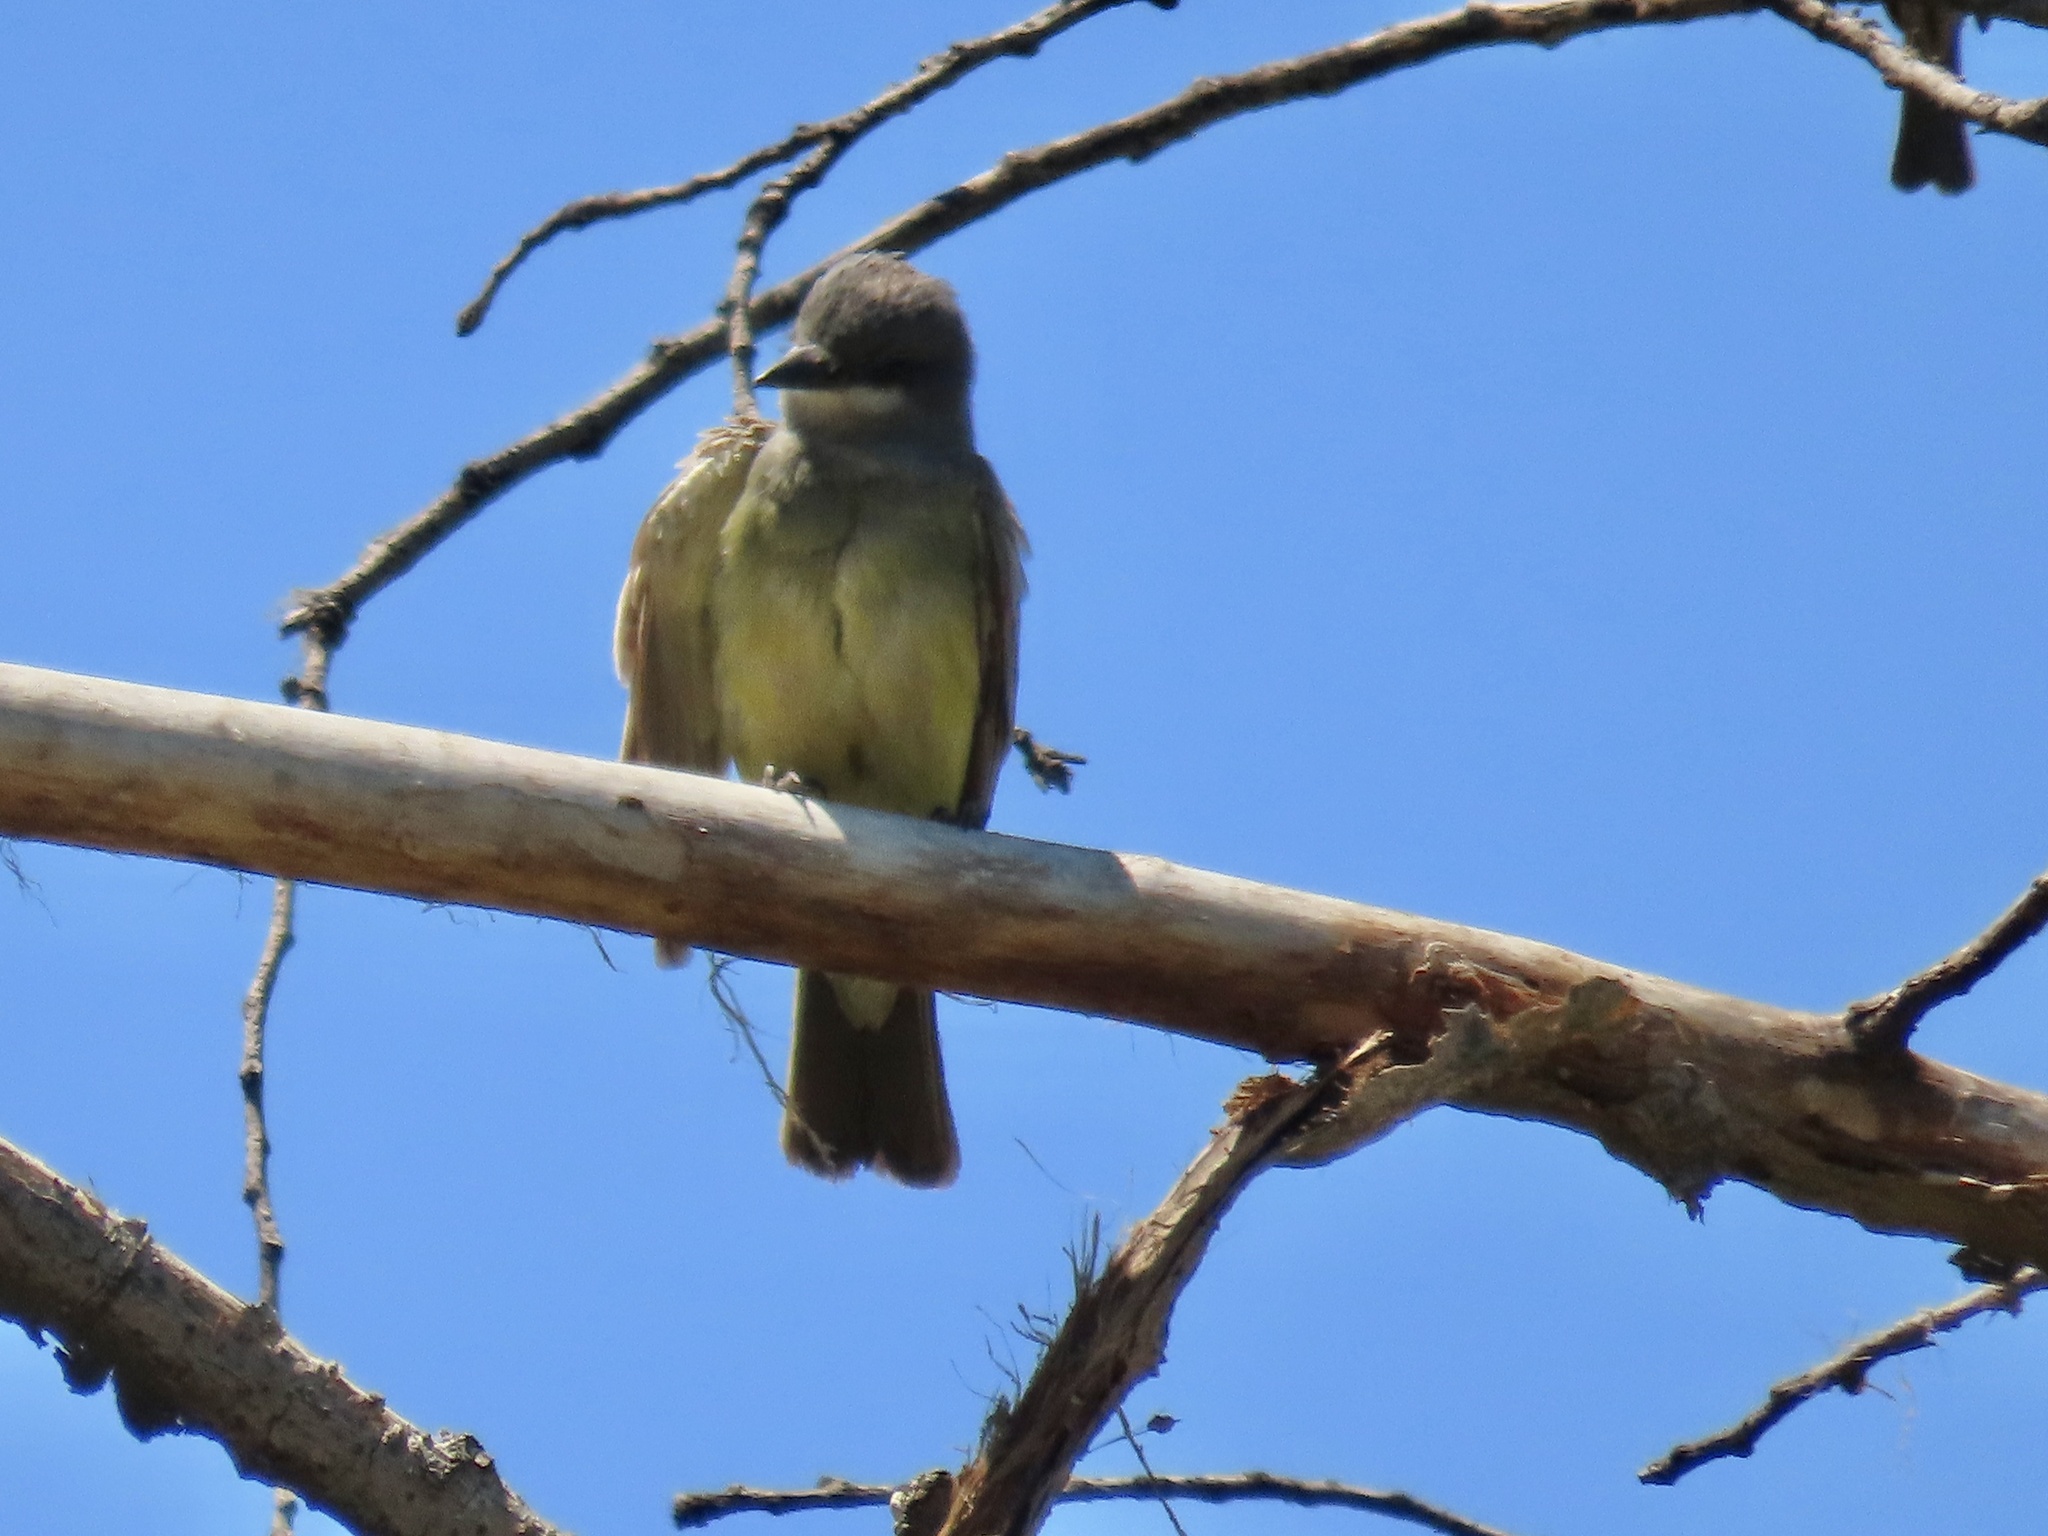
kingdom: Animalia
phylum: Chordata
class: Aves
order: Passeriformes
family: Tyrannidae
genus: Tyrannus
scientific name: Tyrannus vociferans
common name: Cassin's kingbird
